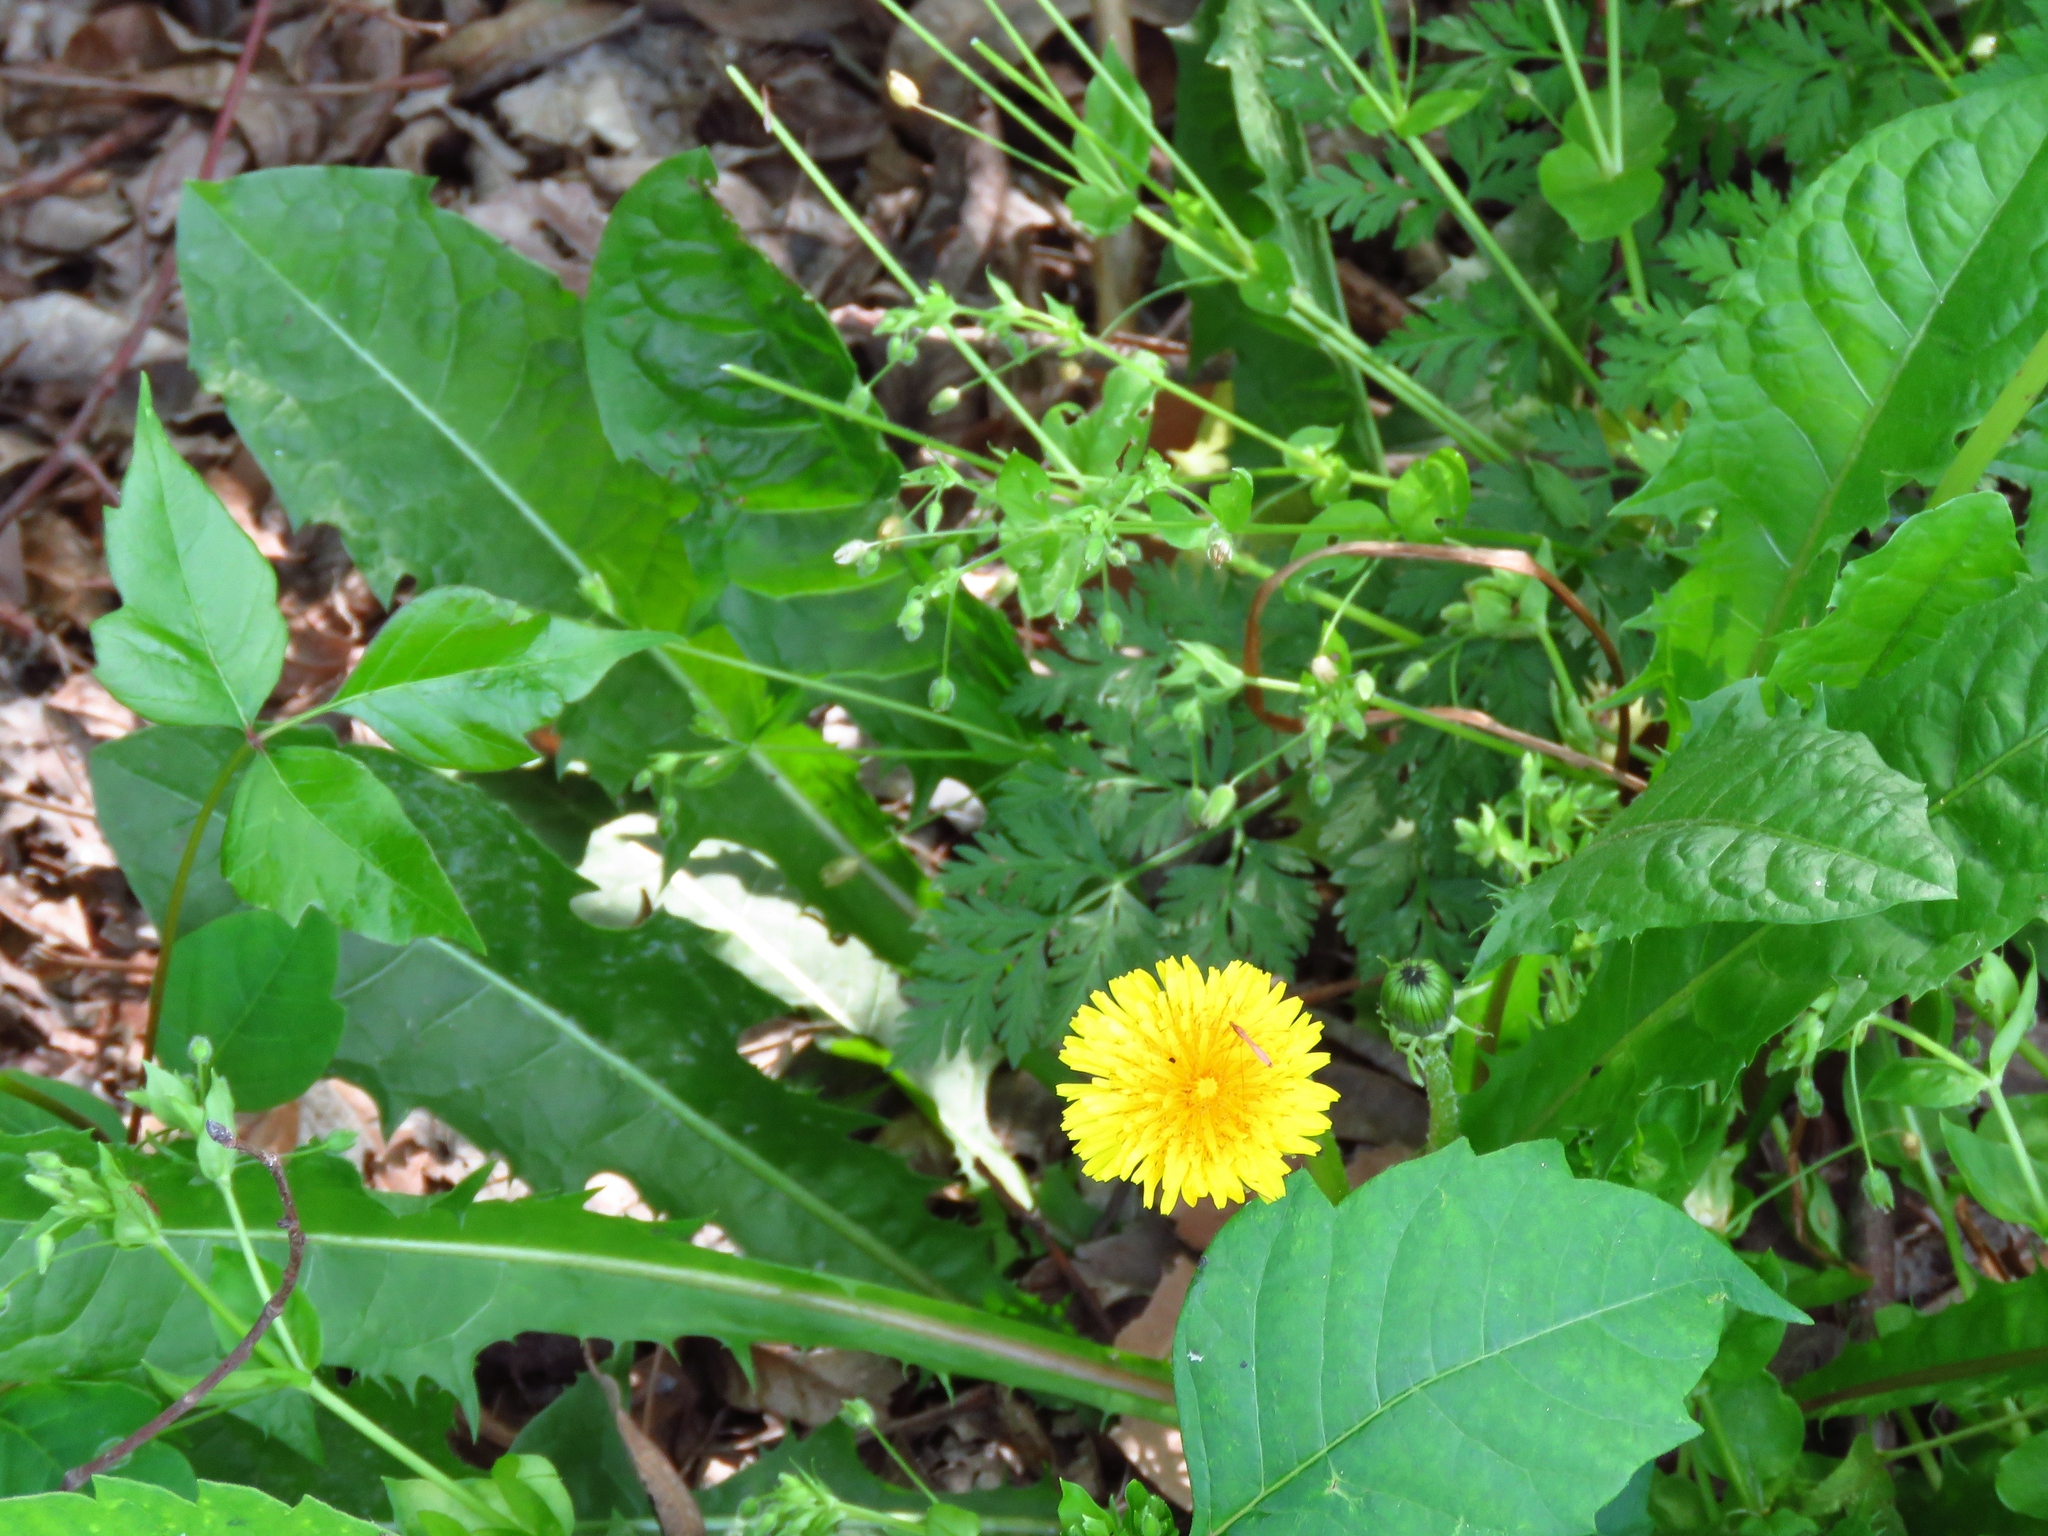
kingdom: Plantae
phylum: Tracheophyta
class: Magnoliopsida
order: Asterales
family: Asteraceae
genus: Taraxacum
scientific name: Taraxacum officinale
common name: Common dandelion
